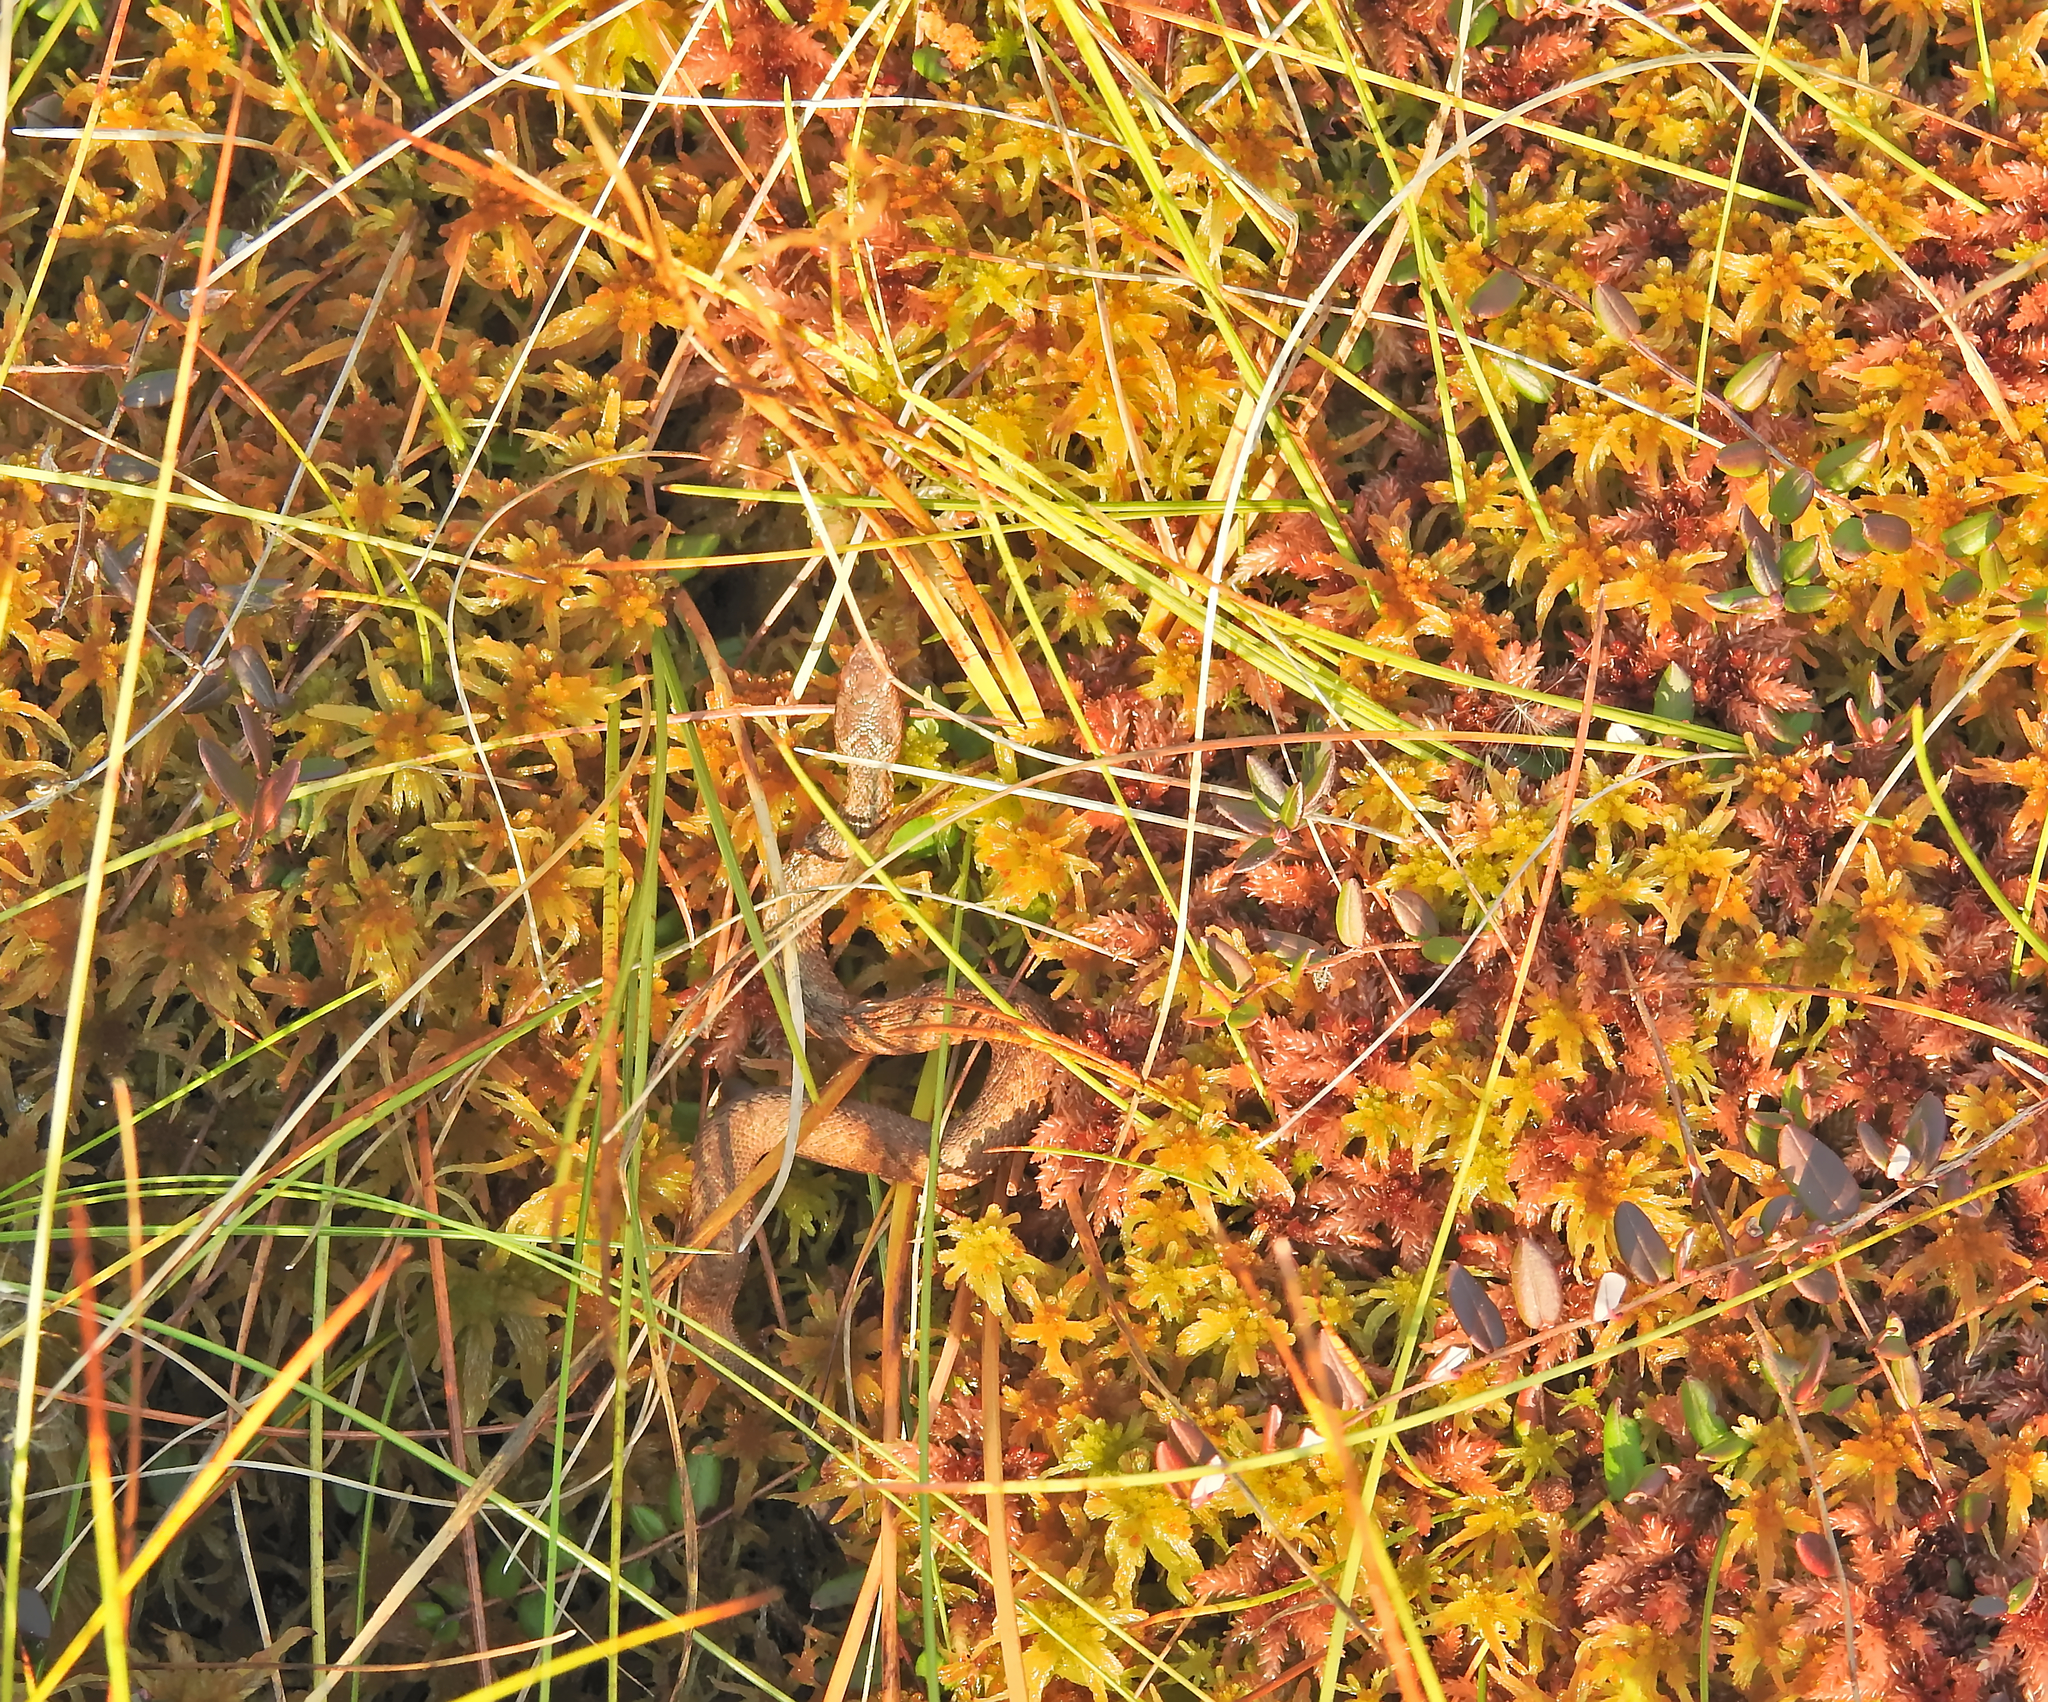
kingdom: Animalia
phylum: Chordata
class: Squamata
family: Viperidae
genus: Vipera
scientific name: Vipera berus
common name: Adder
